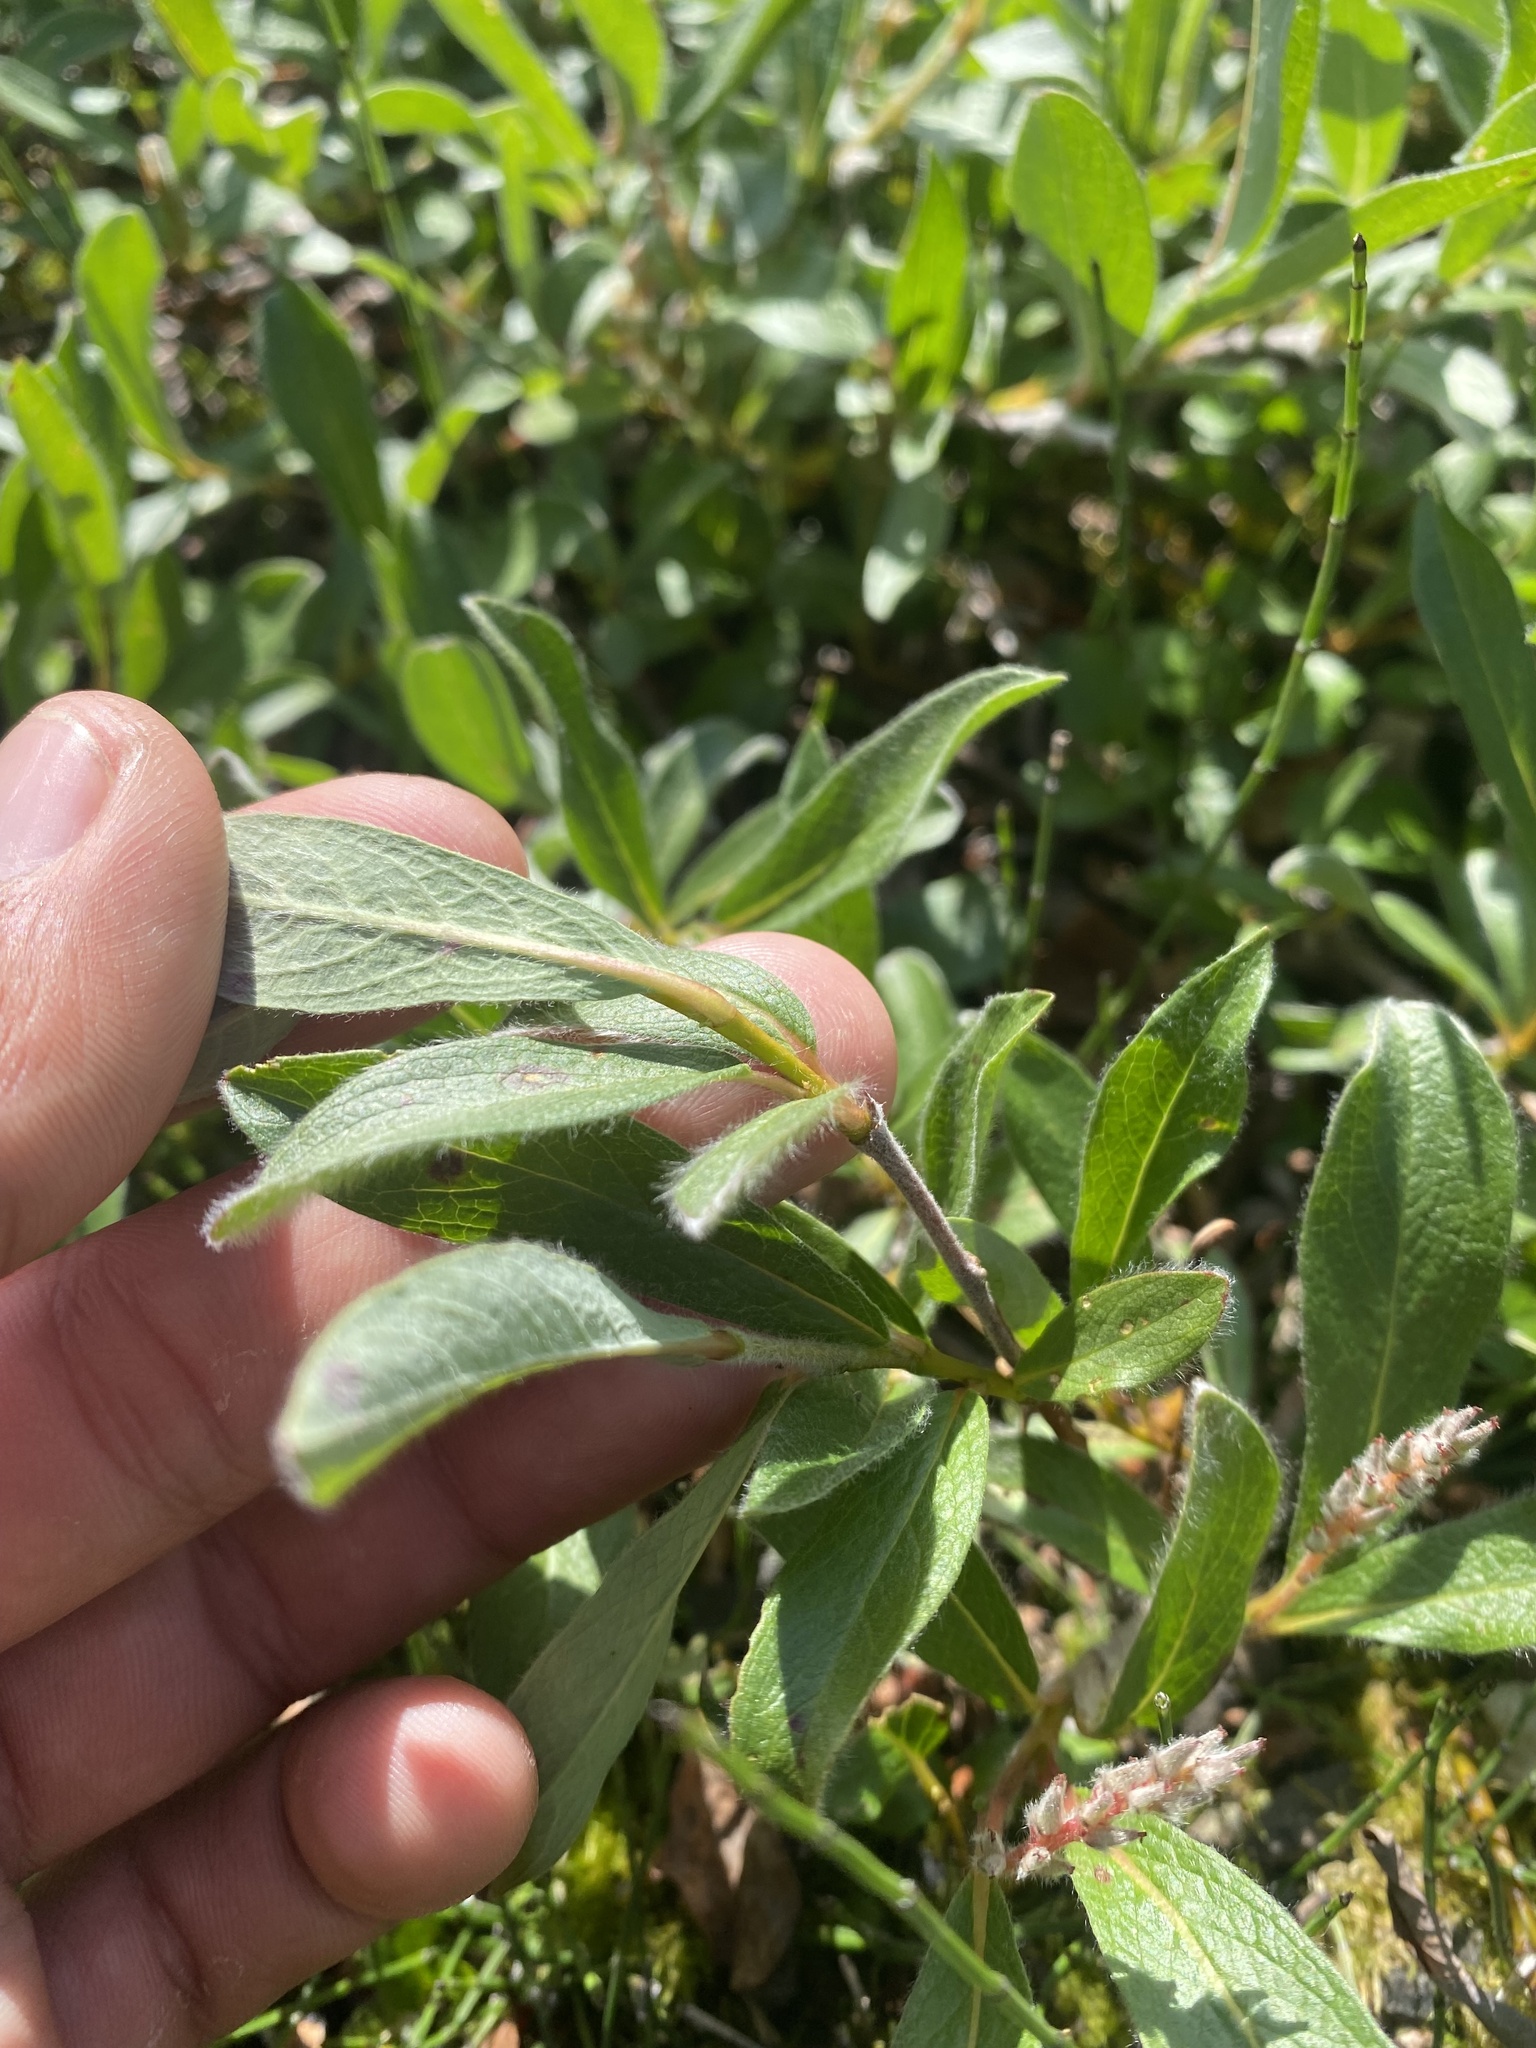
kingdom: Plantae
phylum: Tracheophyta
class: Magnoliopsida
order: Malpighiales
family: Salicaceae
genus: Salix
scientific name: Salix glauca
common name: Glaucous willow
